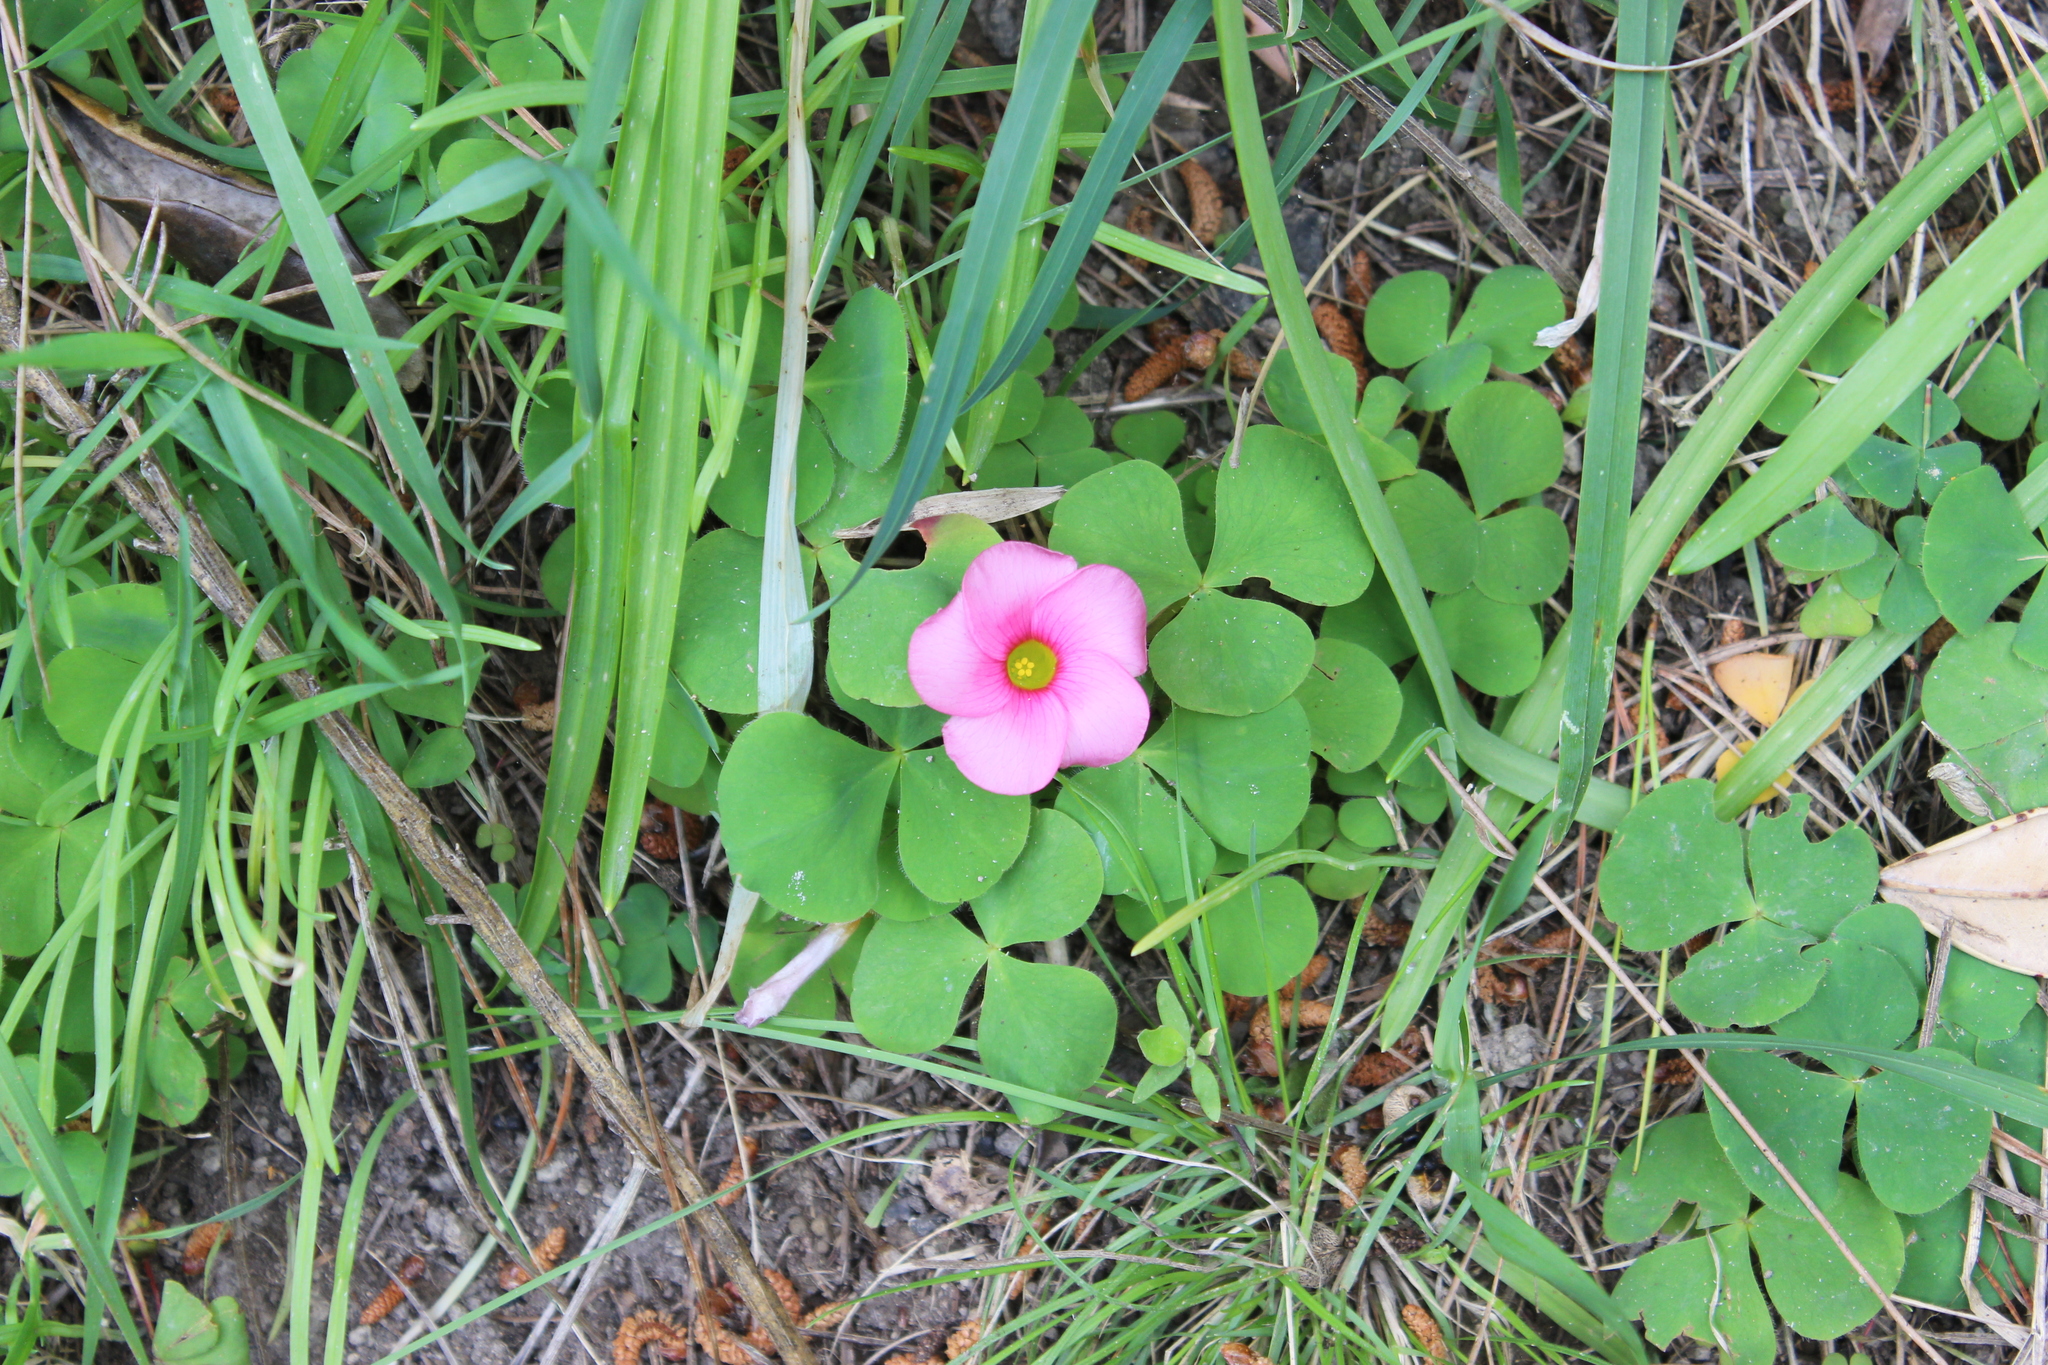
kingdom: Plantae
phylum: Tracheophyta
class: Magnoliopsida
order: Oxalidales
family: Oxalidaceae
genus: Oxalis
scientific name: Oxalis purpurea
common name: Purple woodsorrel
